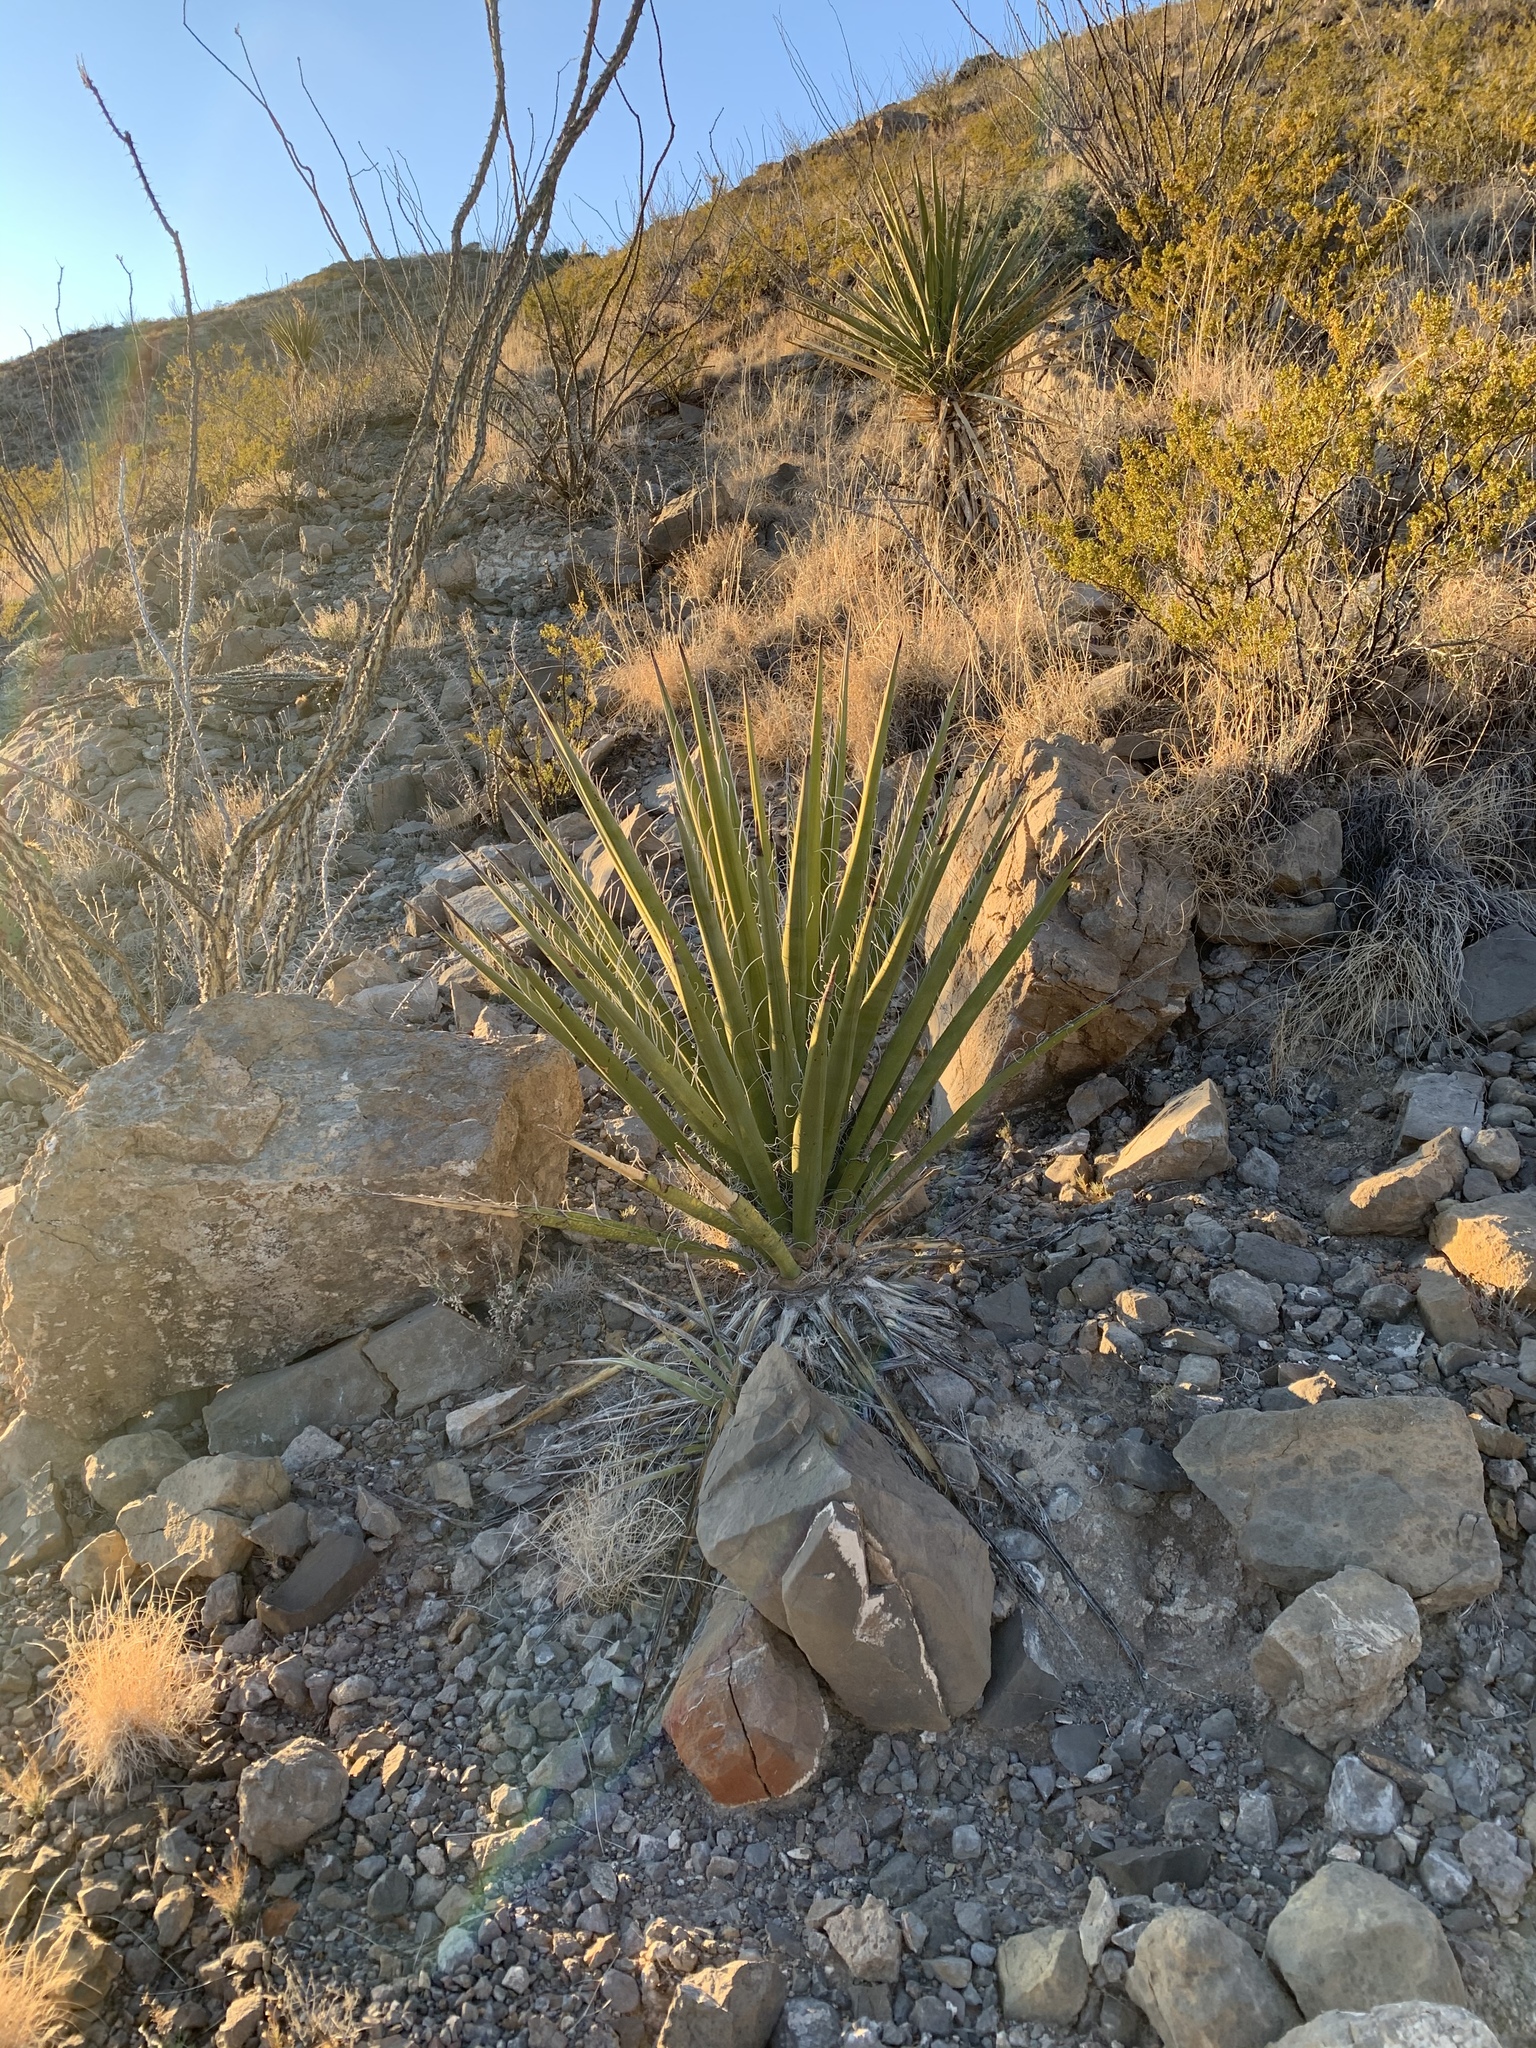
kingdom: Plantae
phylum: Tracheophyta
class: Liliopsida
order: Asparagales
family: Asparagaceae
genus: Yucca
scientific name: Yucca treculiana
